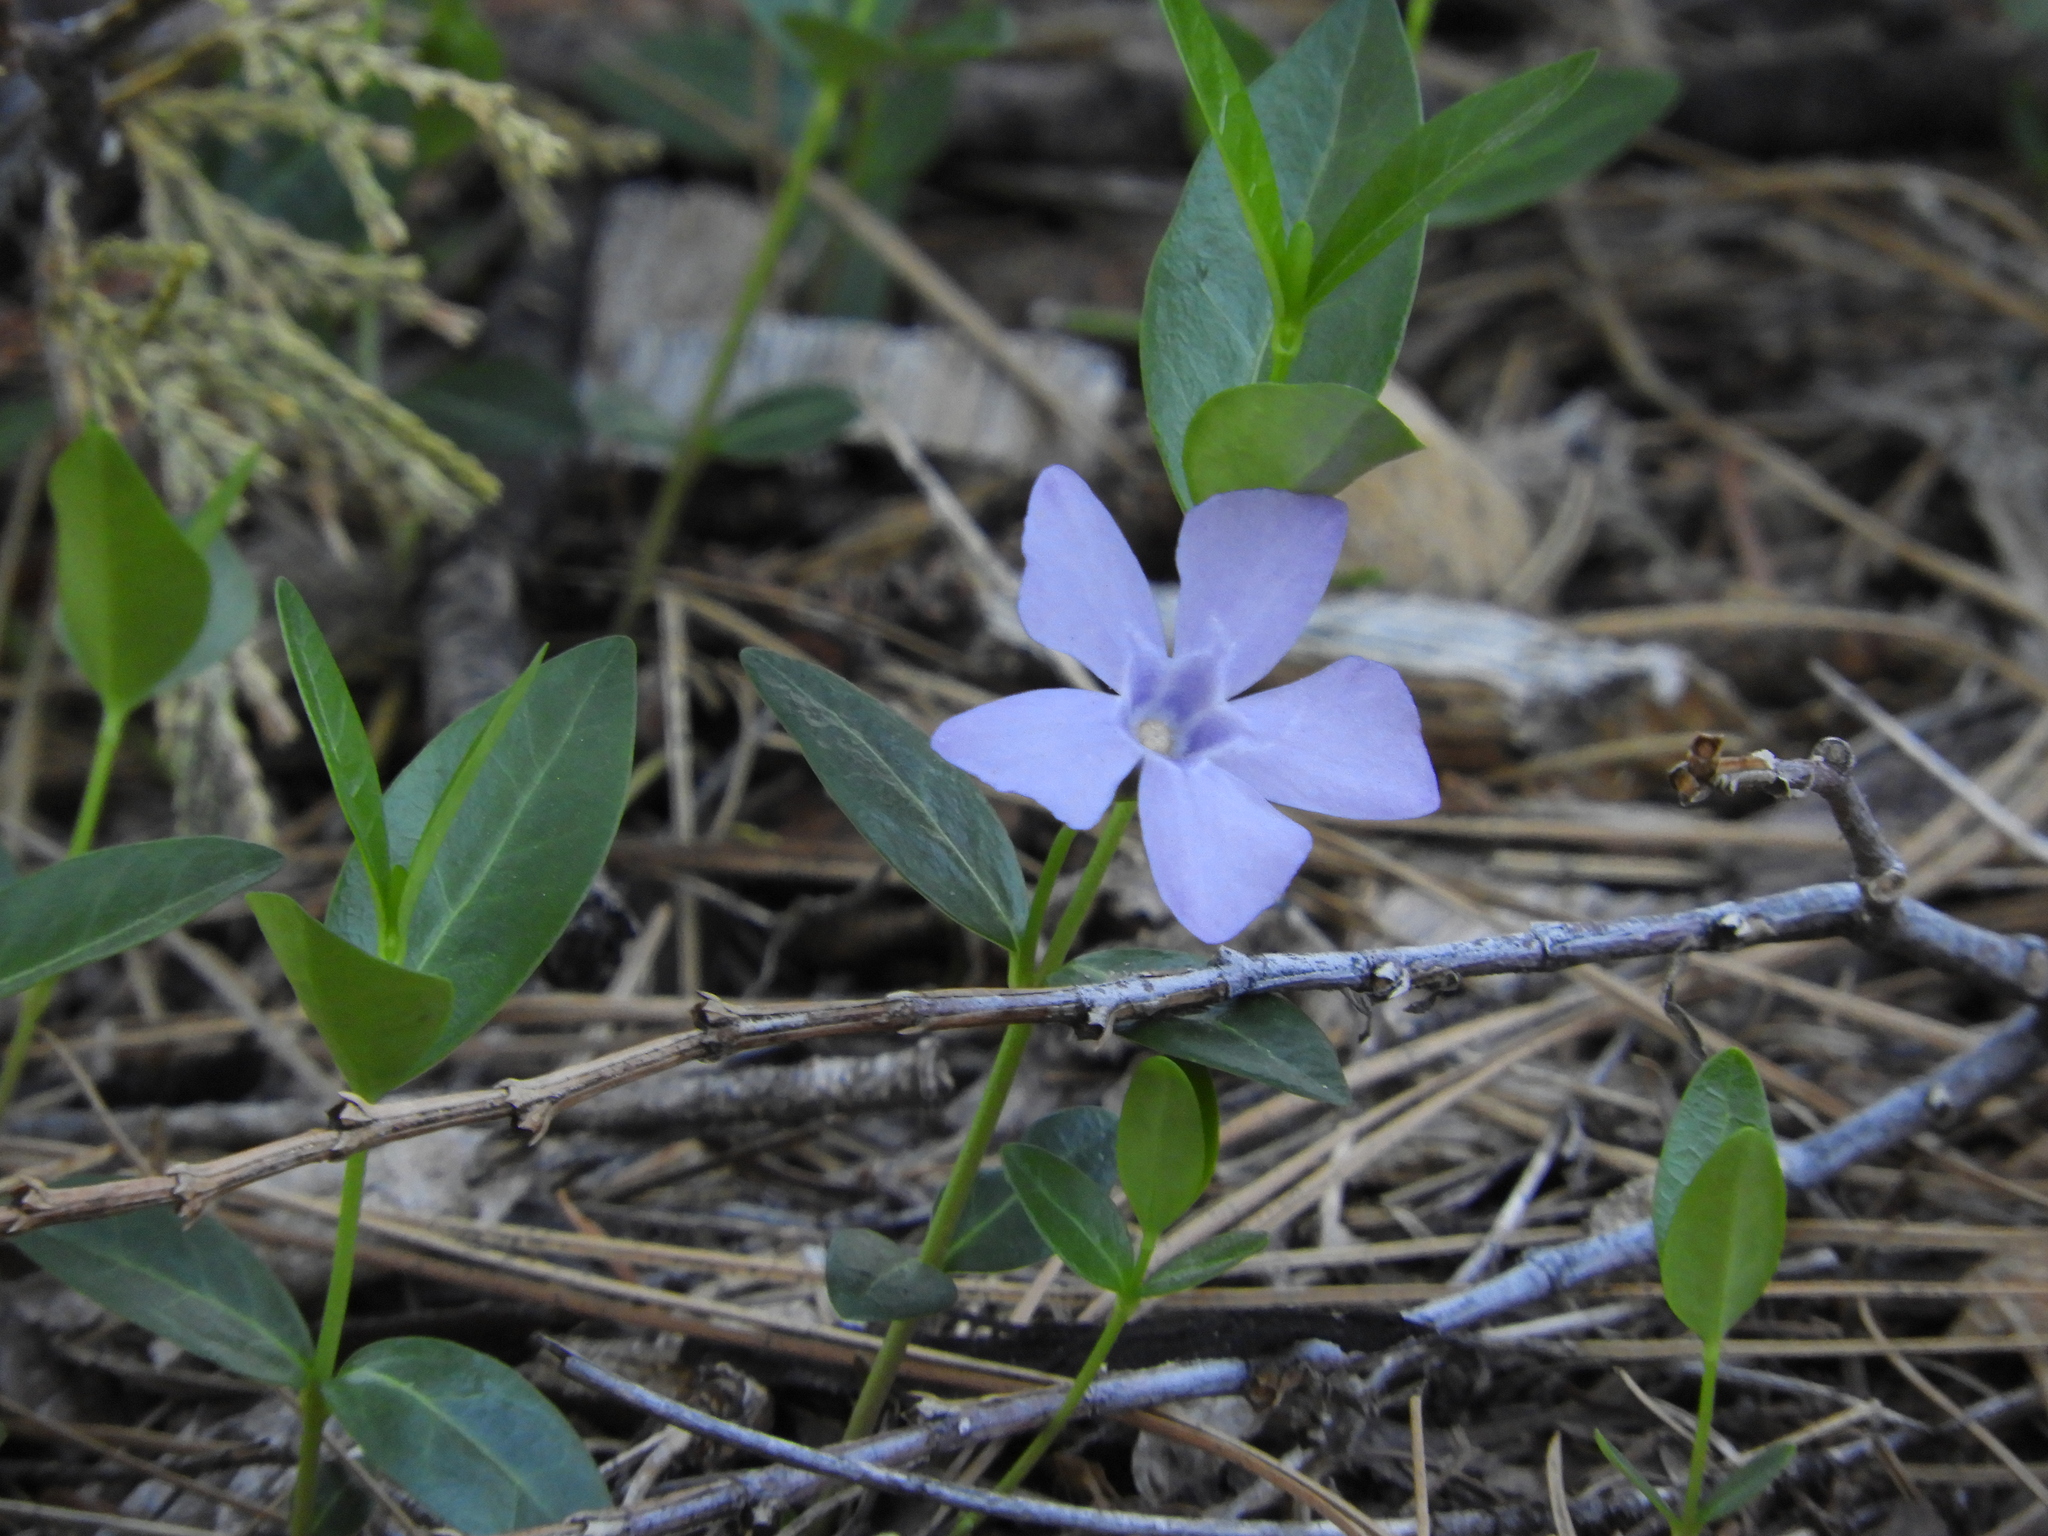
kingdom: Plantae
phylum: Tracheophyta
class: Magnoliopsida
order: Gentianales
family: Apocynaceae
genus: Vinca
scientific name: Vinca minor
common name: Lesser periwinkle
